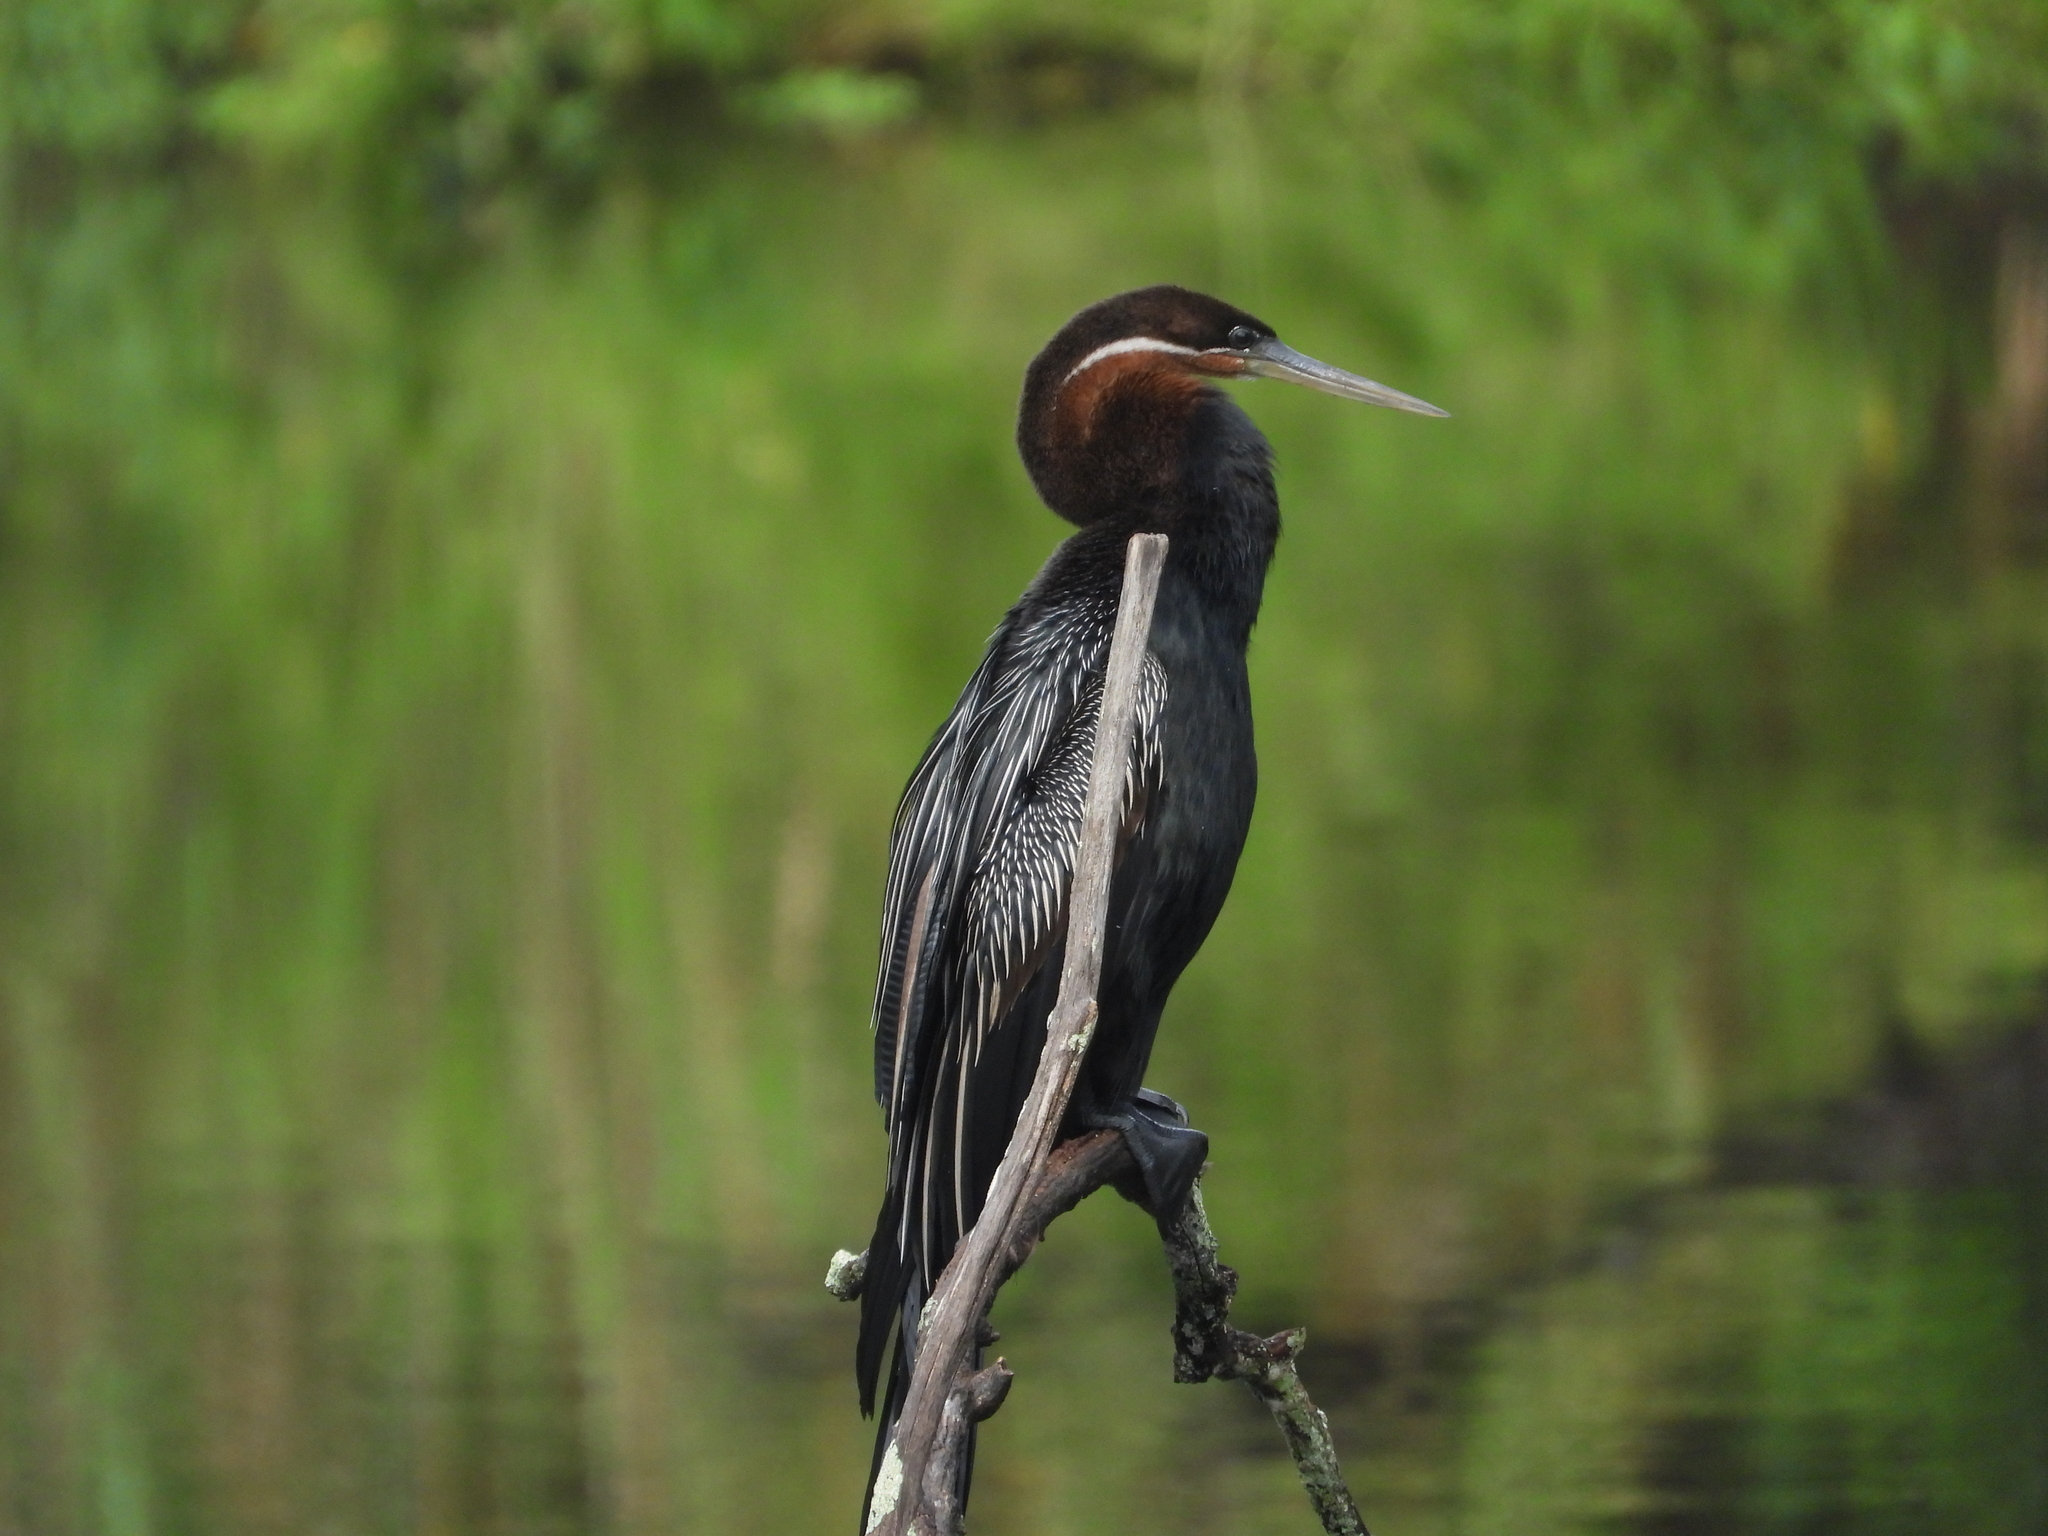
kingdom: Animalia
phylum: Chordata
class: Aves
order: Suliformes
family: Anhingidae
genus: Anhinga
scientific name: Anhinga rufa
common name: African darter
